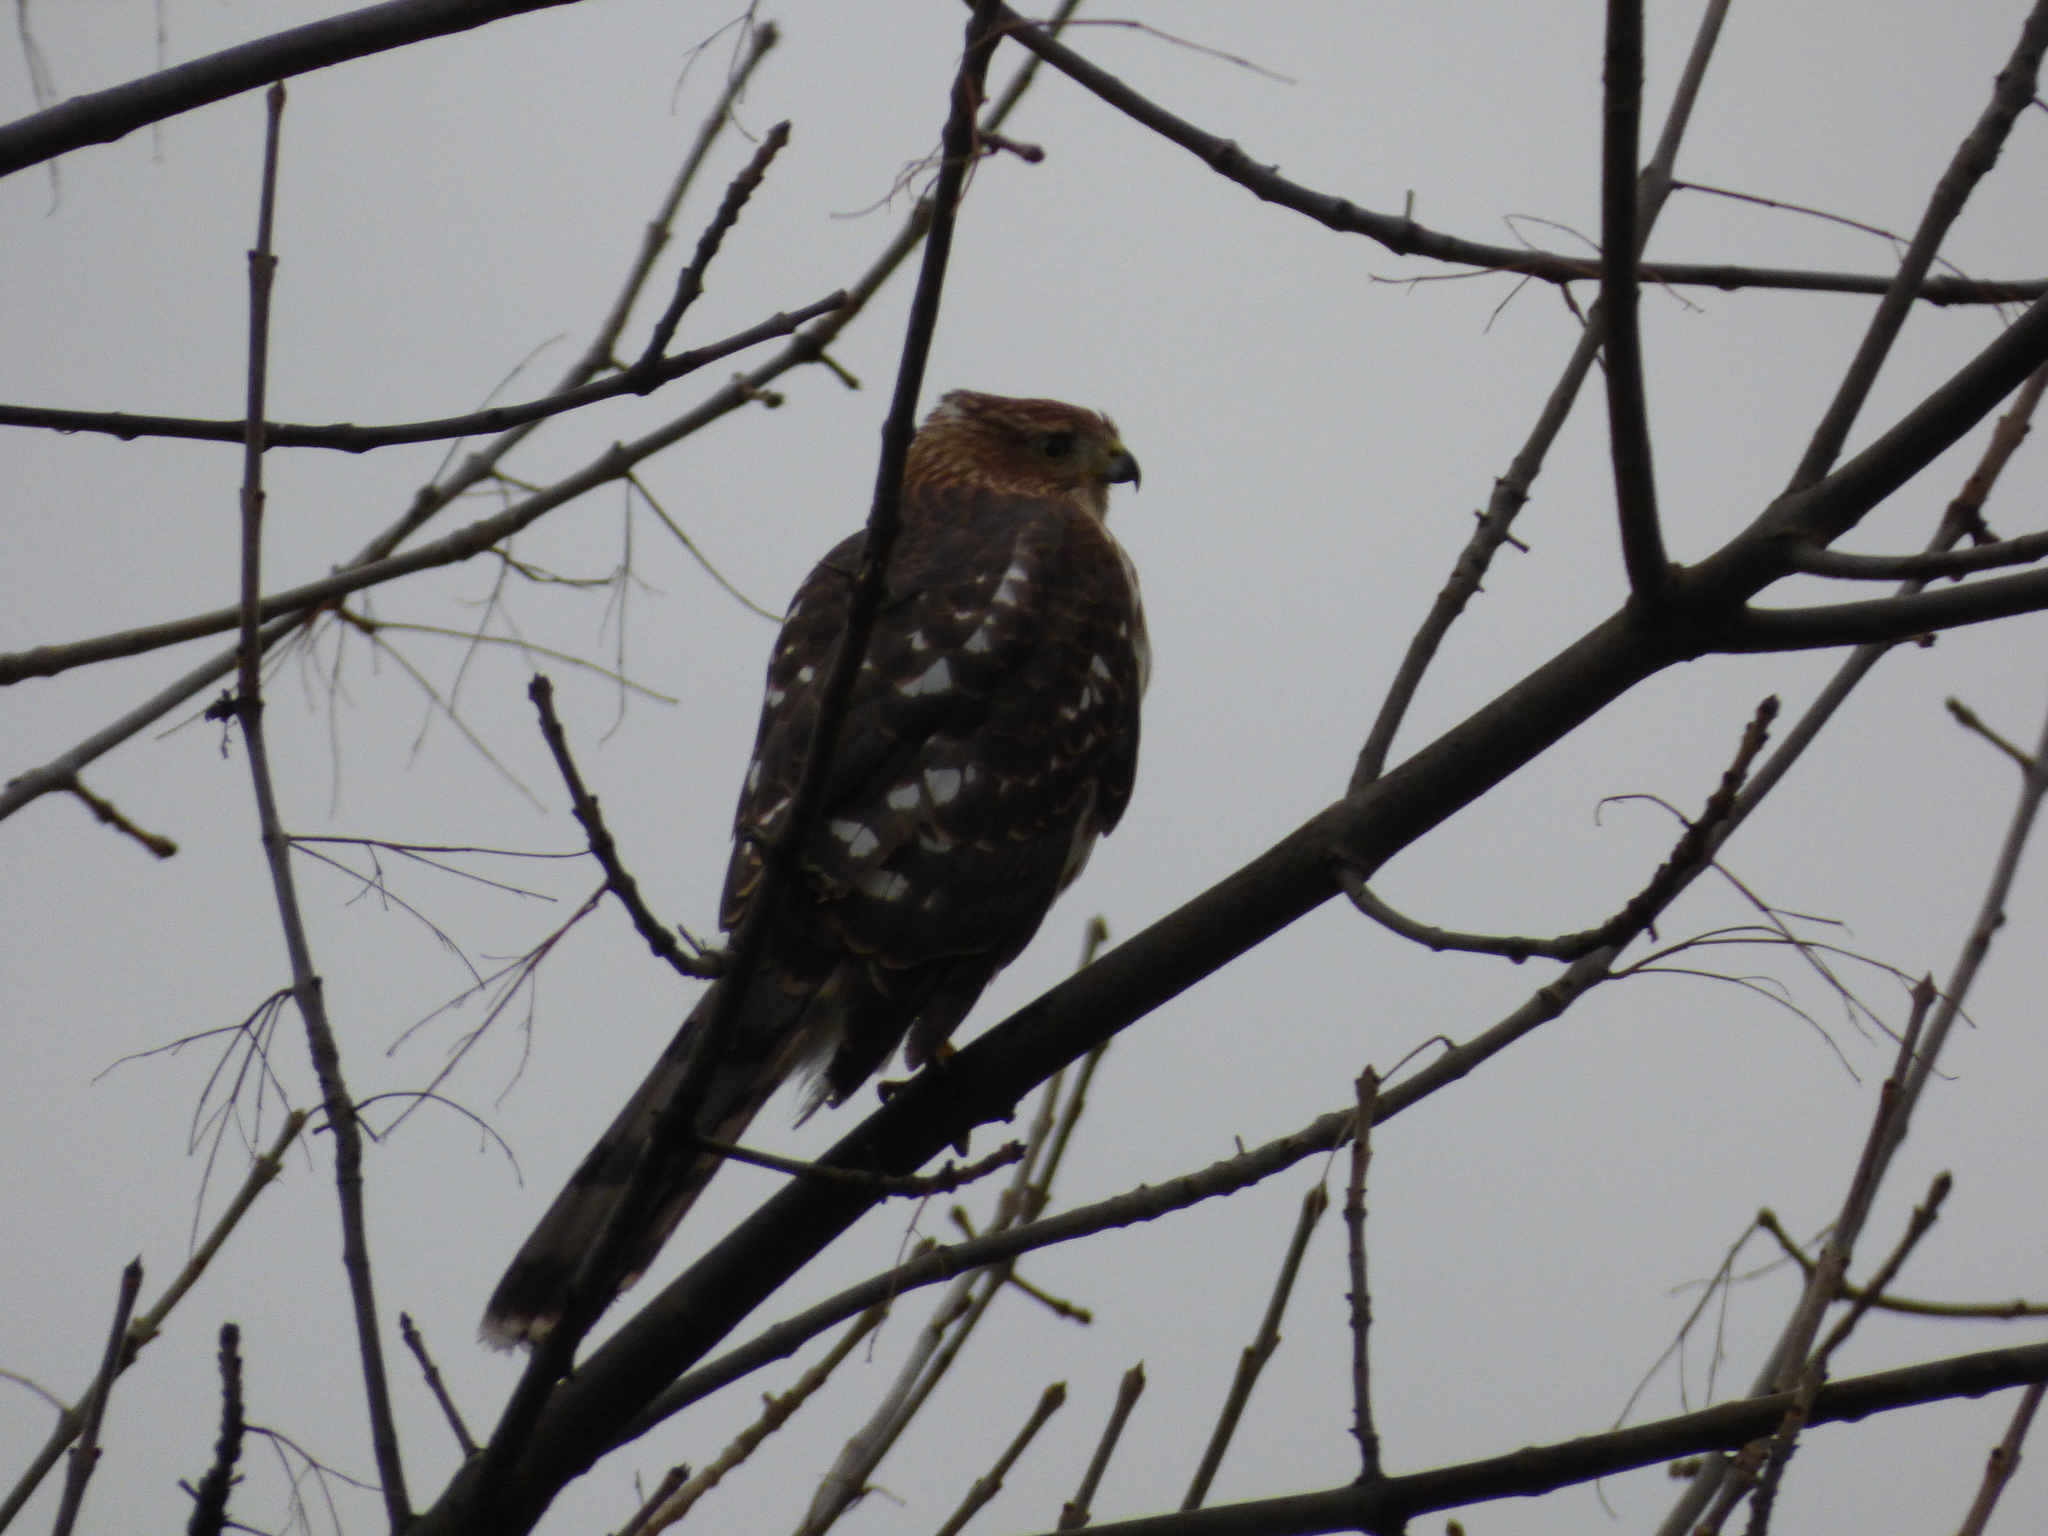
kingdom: Animalia
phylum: Chordata
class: Aves
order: Accipitriformes
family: Accipitridae
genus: Accipiter
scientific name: Accipiter cooperii
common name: Cooper's hawk
